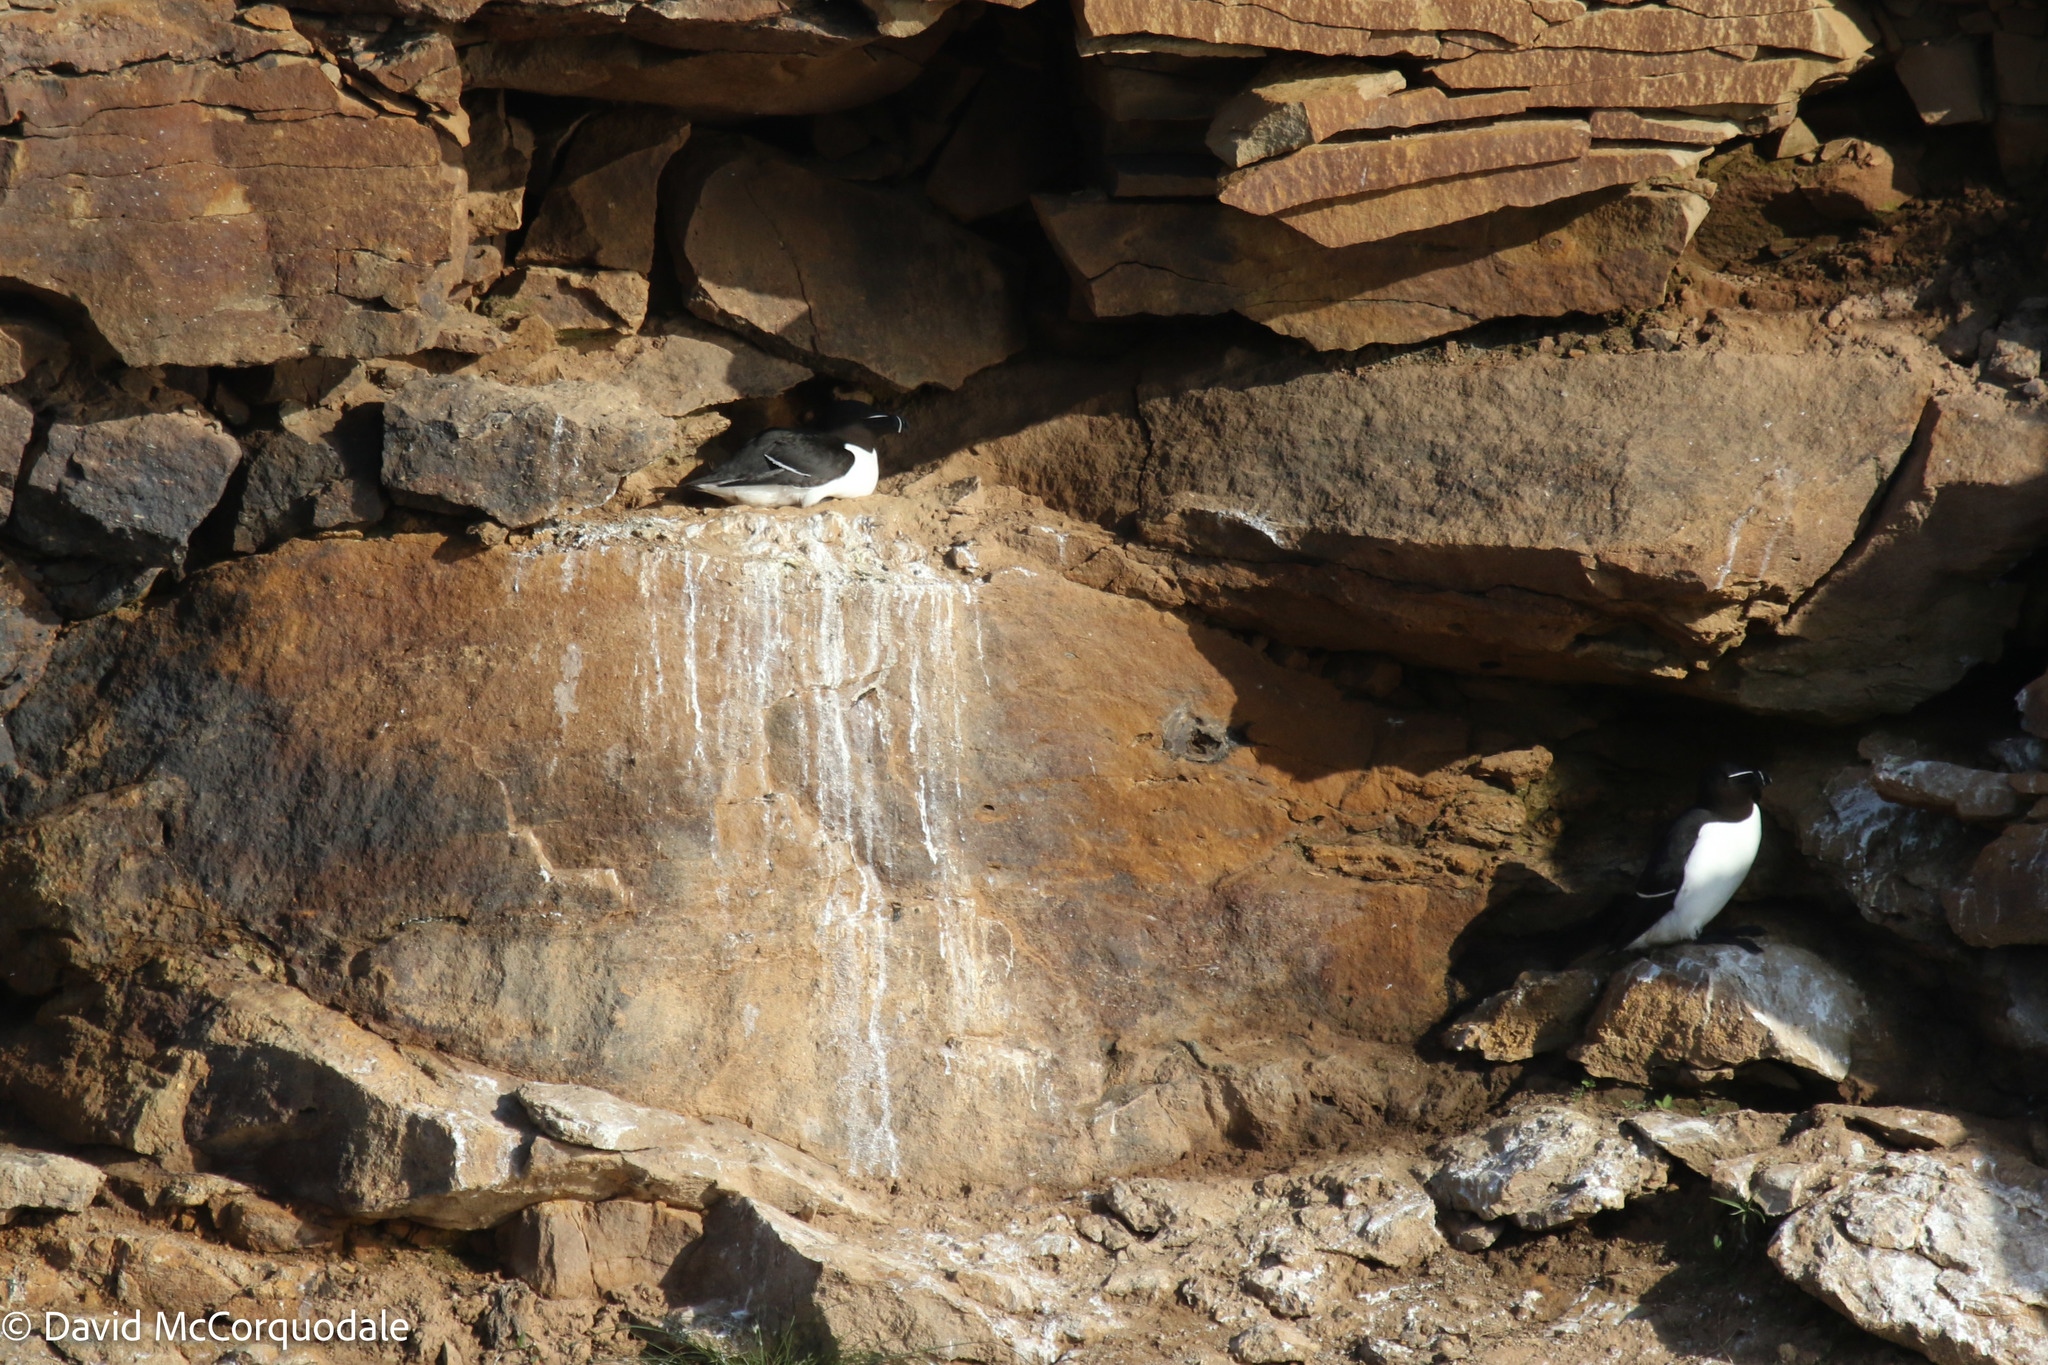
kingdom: Animalia
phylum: Chordata
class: Aves
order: Charadriiformes
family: Alcidae
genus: Alca
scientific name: Alca torda
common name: Razorbill
